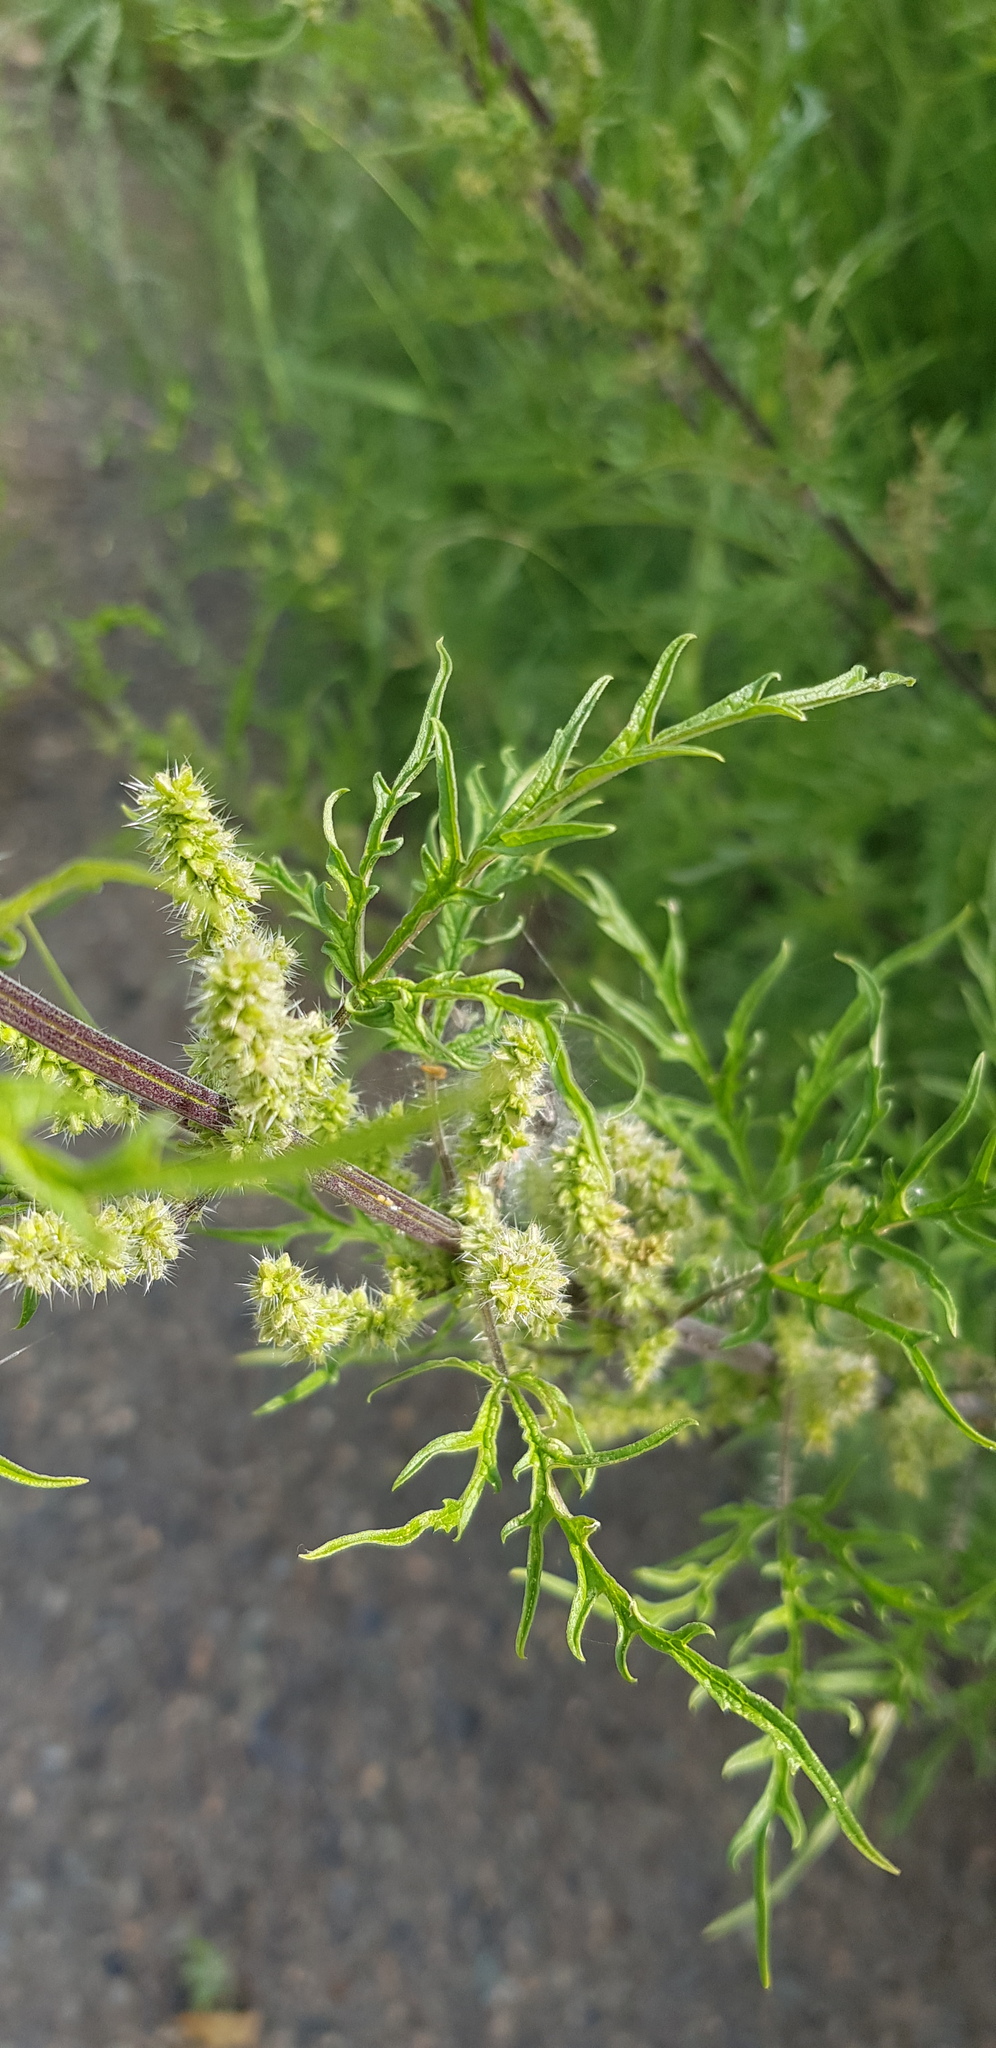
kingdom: Plantae
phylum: Tracheophyta
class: Magnoliopsida
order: Rosales
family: Urticaceae
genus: Urtica
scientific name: Urtica cannabina
